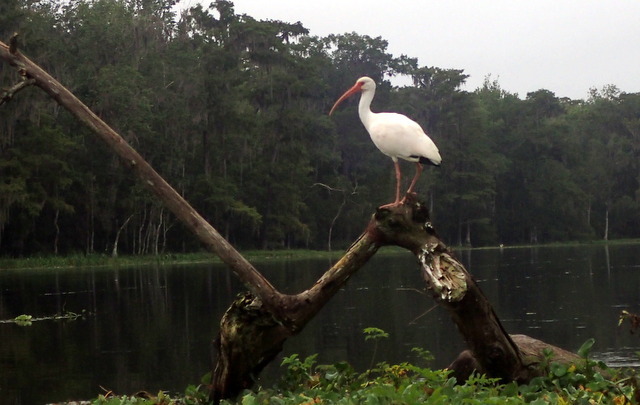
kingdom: Animalia
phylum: Chordata
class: Aves
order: Pelecaniformes
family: Threskiornithidae
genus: Eudocimus
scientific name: Eudocimus albus
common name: White ibis
